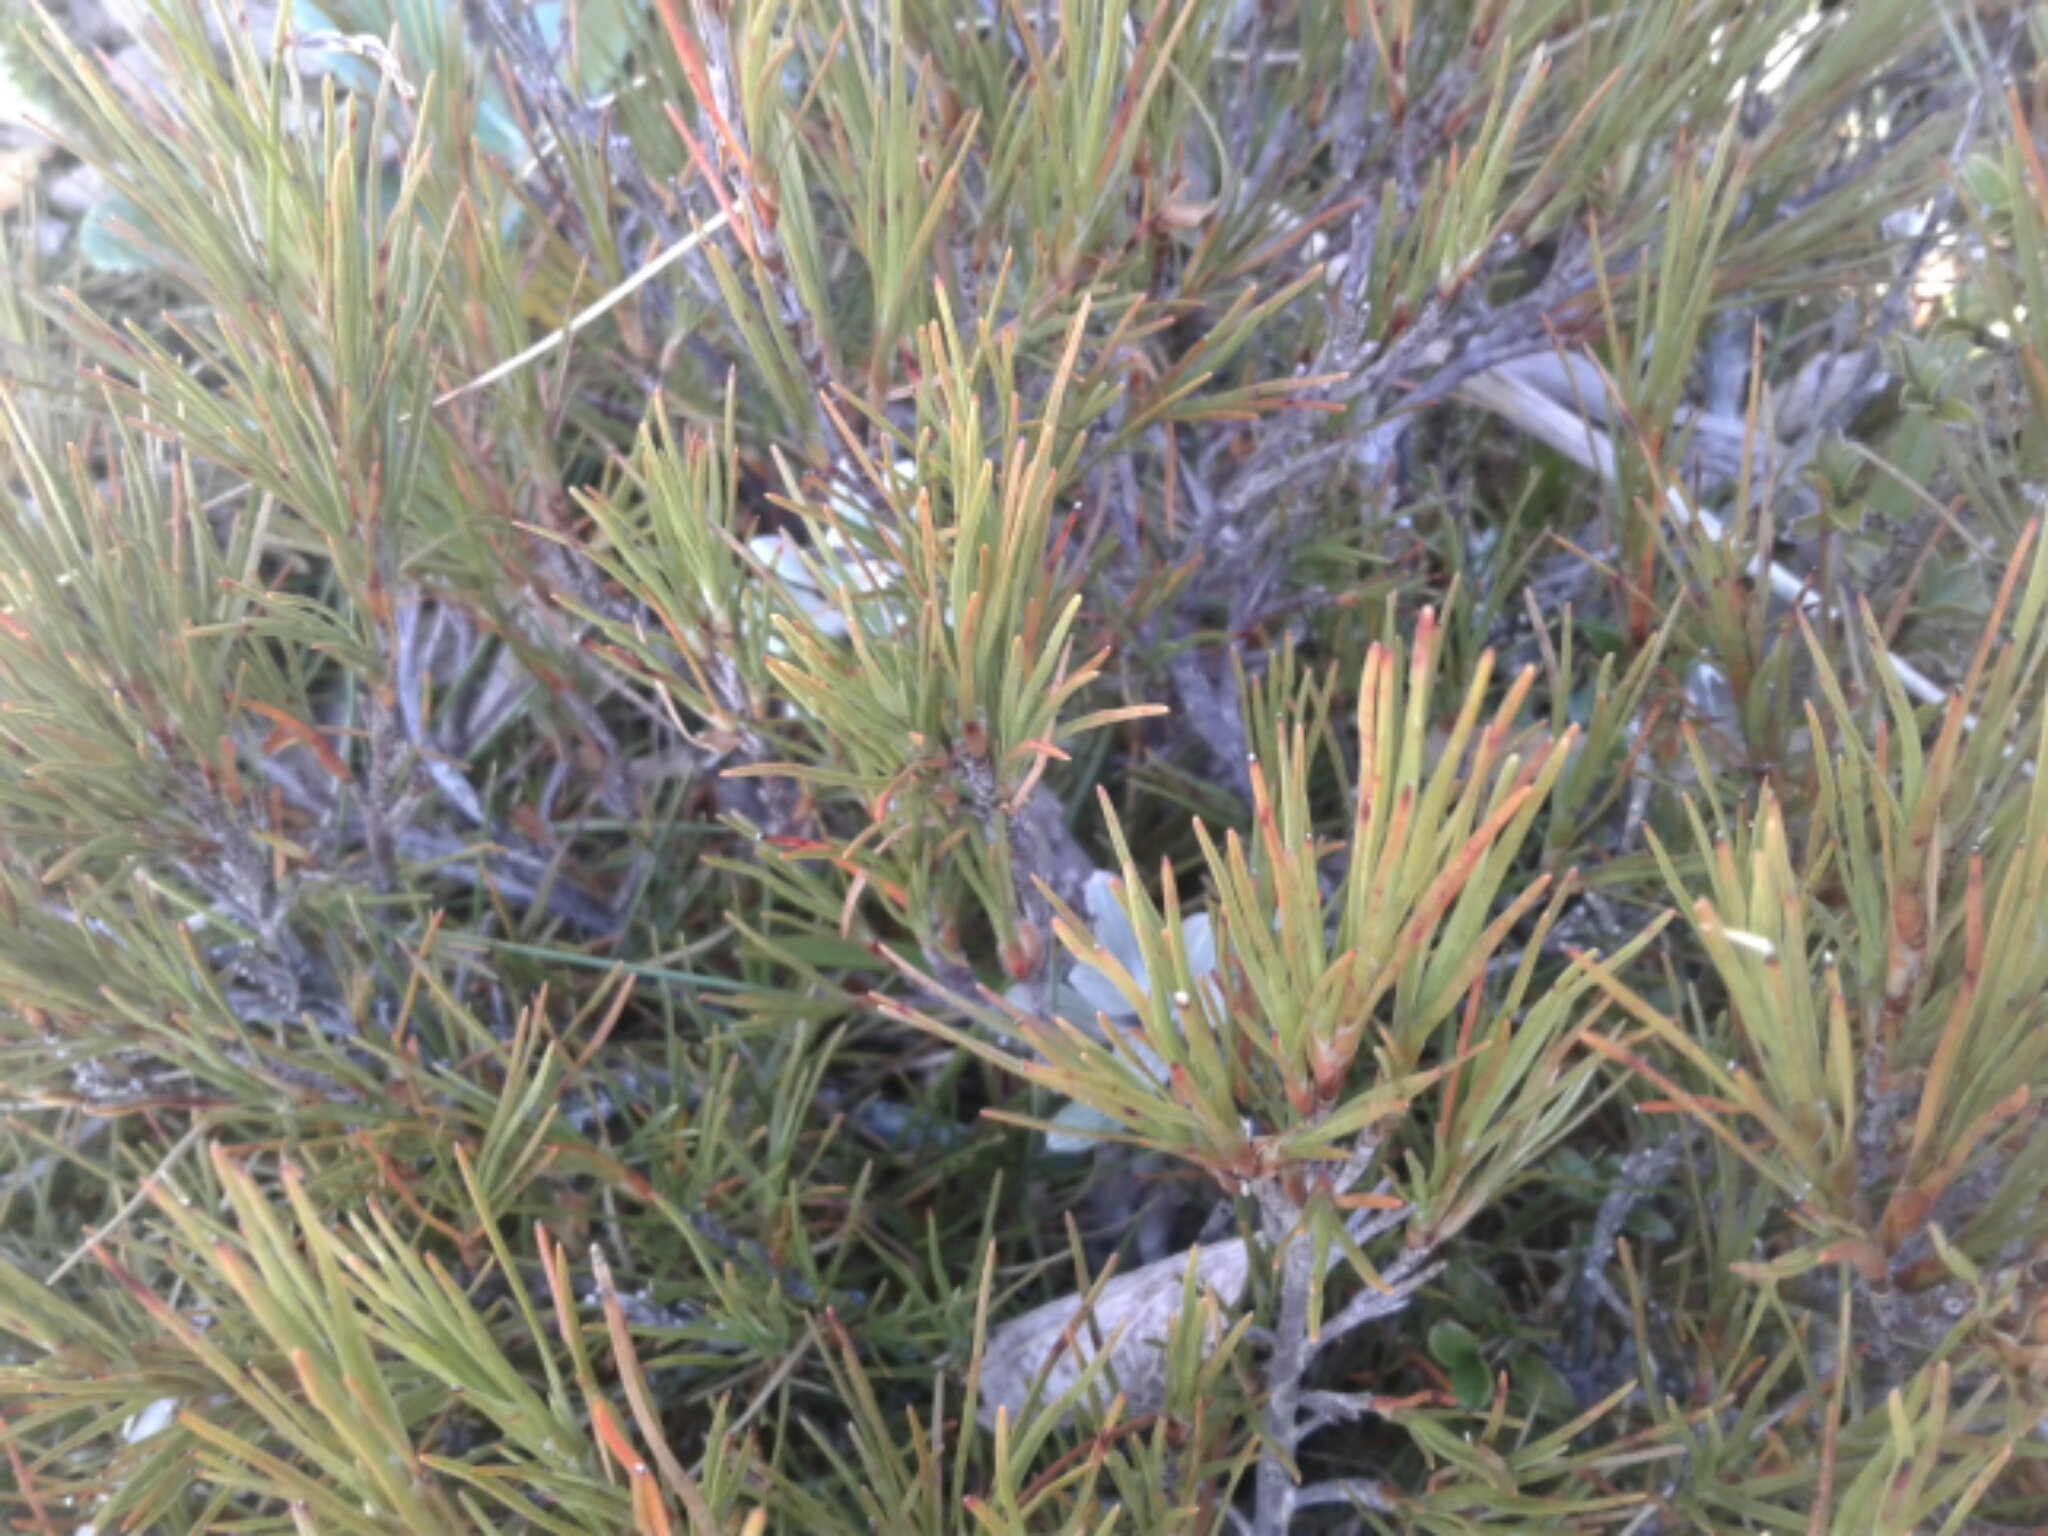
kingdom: Plantae
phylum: Tracheophyta
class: Magnoliopsida
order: Ericales
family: Ericaceae
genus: Dracophyllum
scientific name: Dracophyllum
